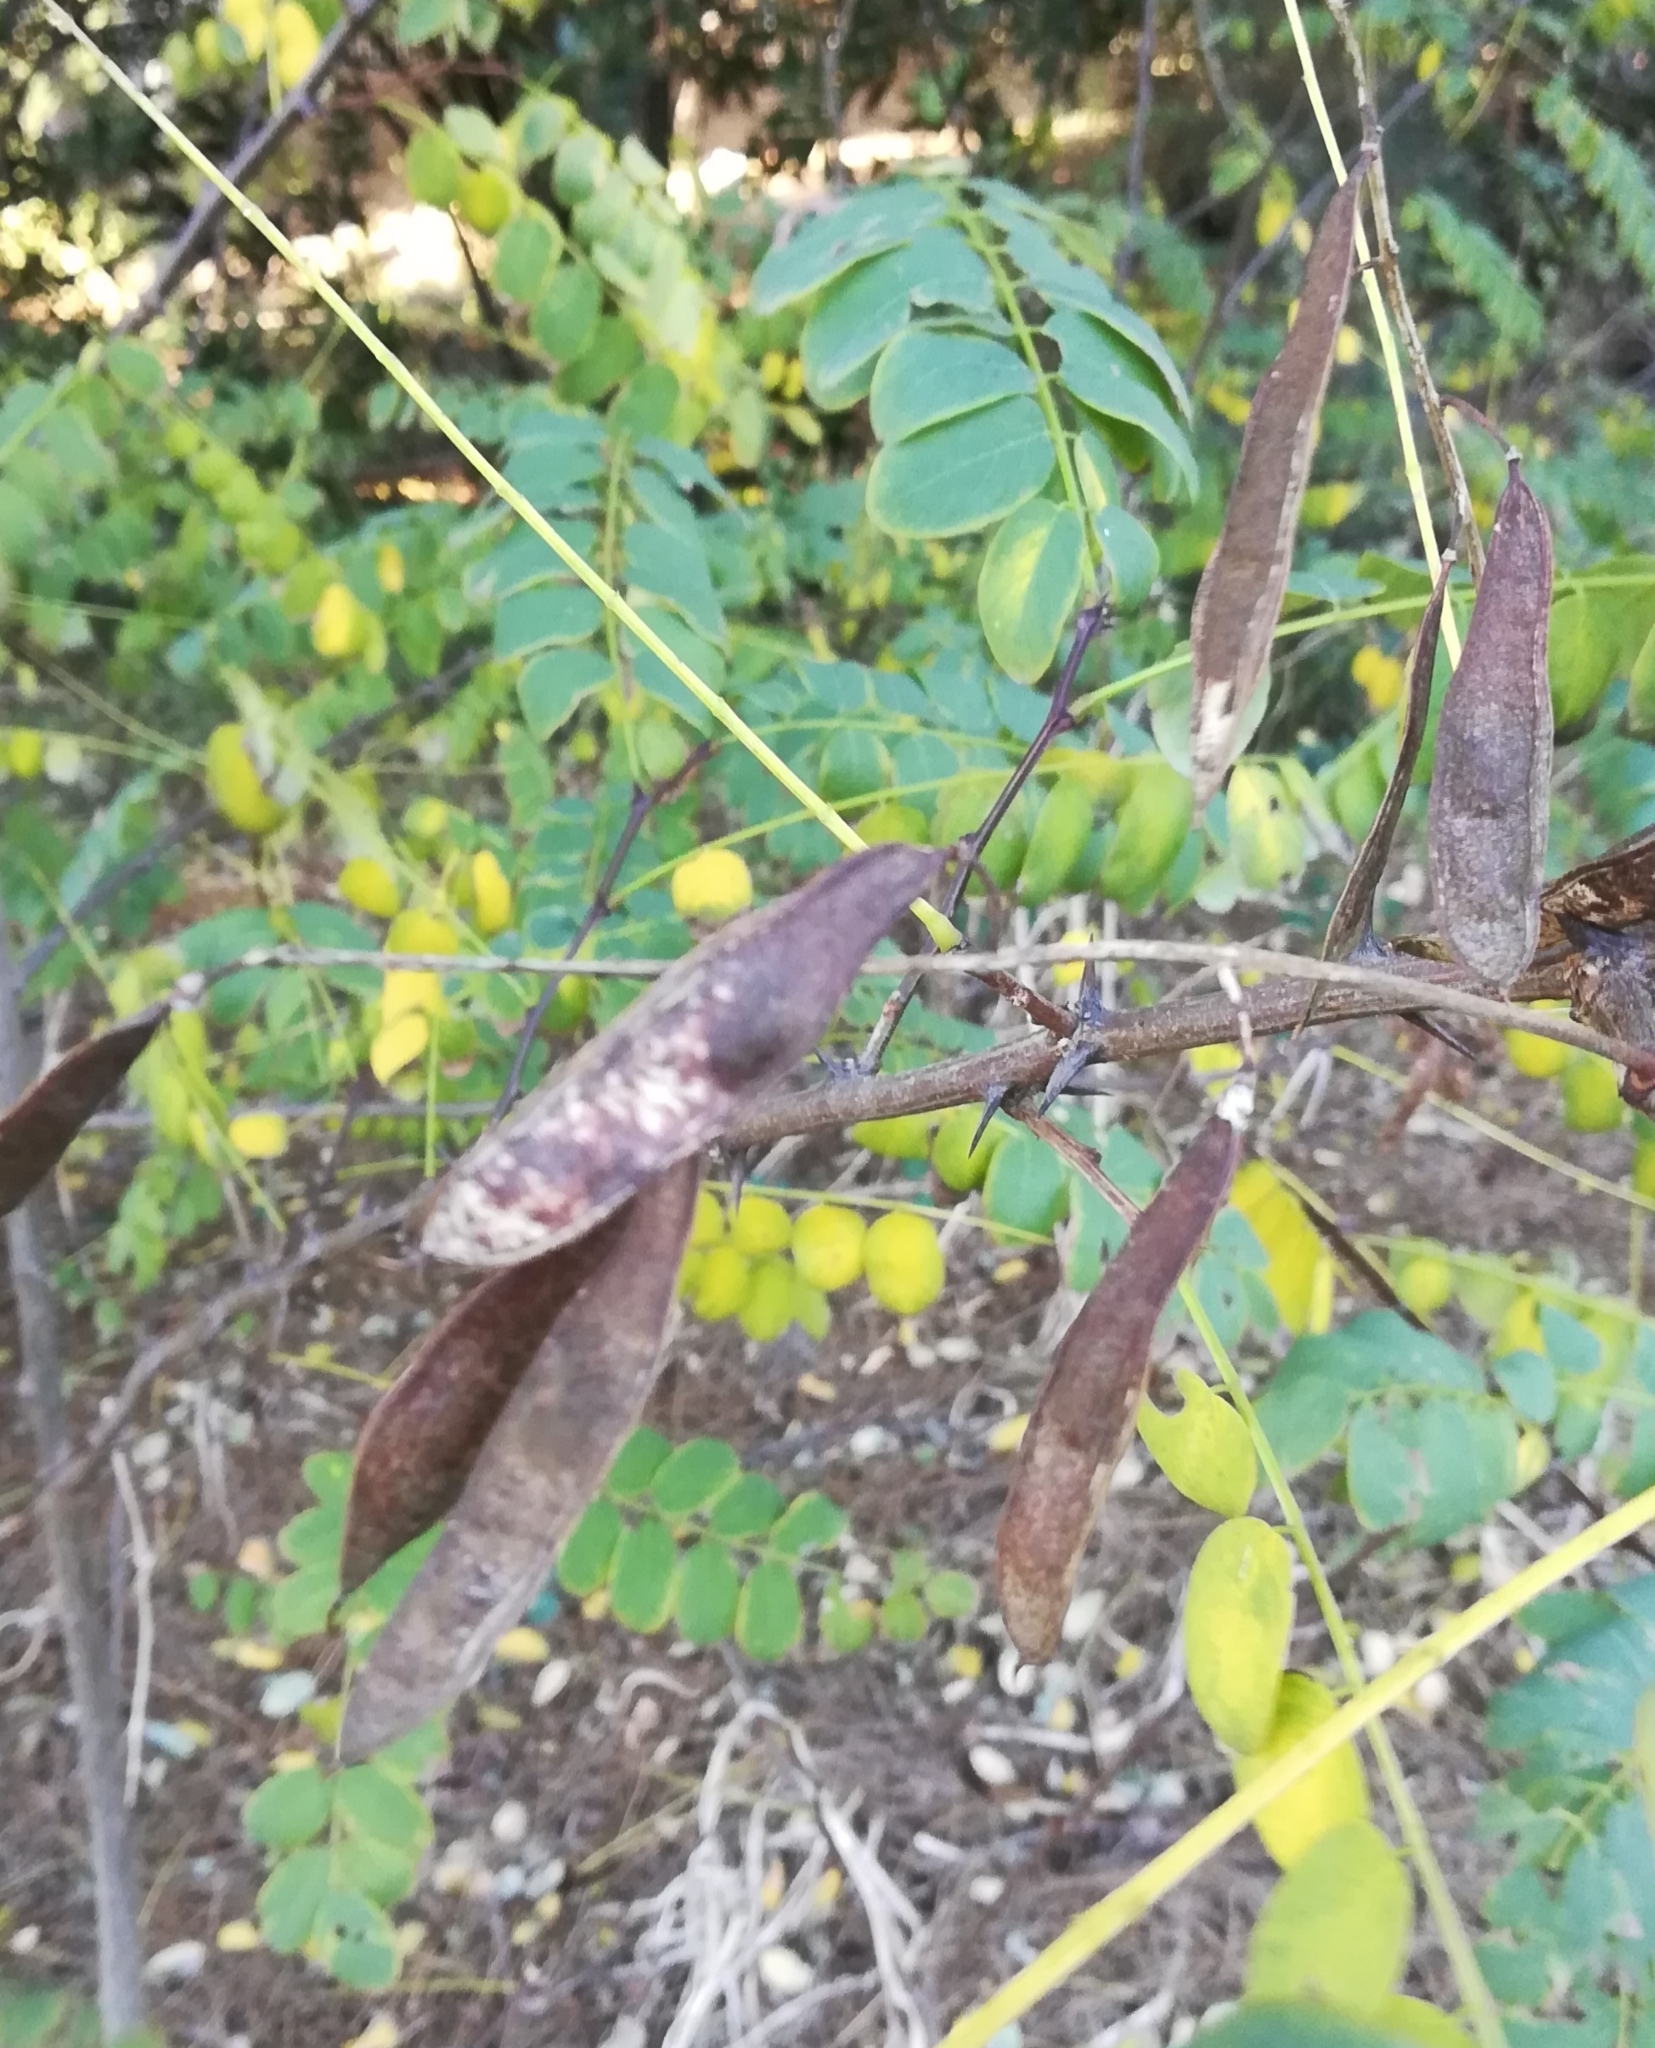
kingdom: Plantae
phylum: Tracheophyta
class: Magnoliopsida
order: Fabales
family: Fabaceae
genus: Robinia
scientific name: Robinia pseudoacacia
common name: Black locust
